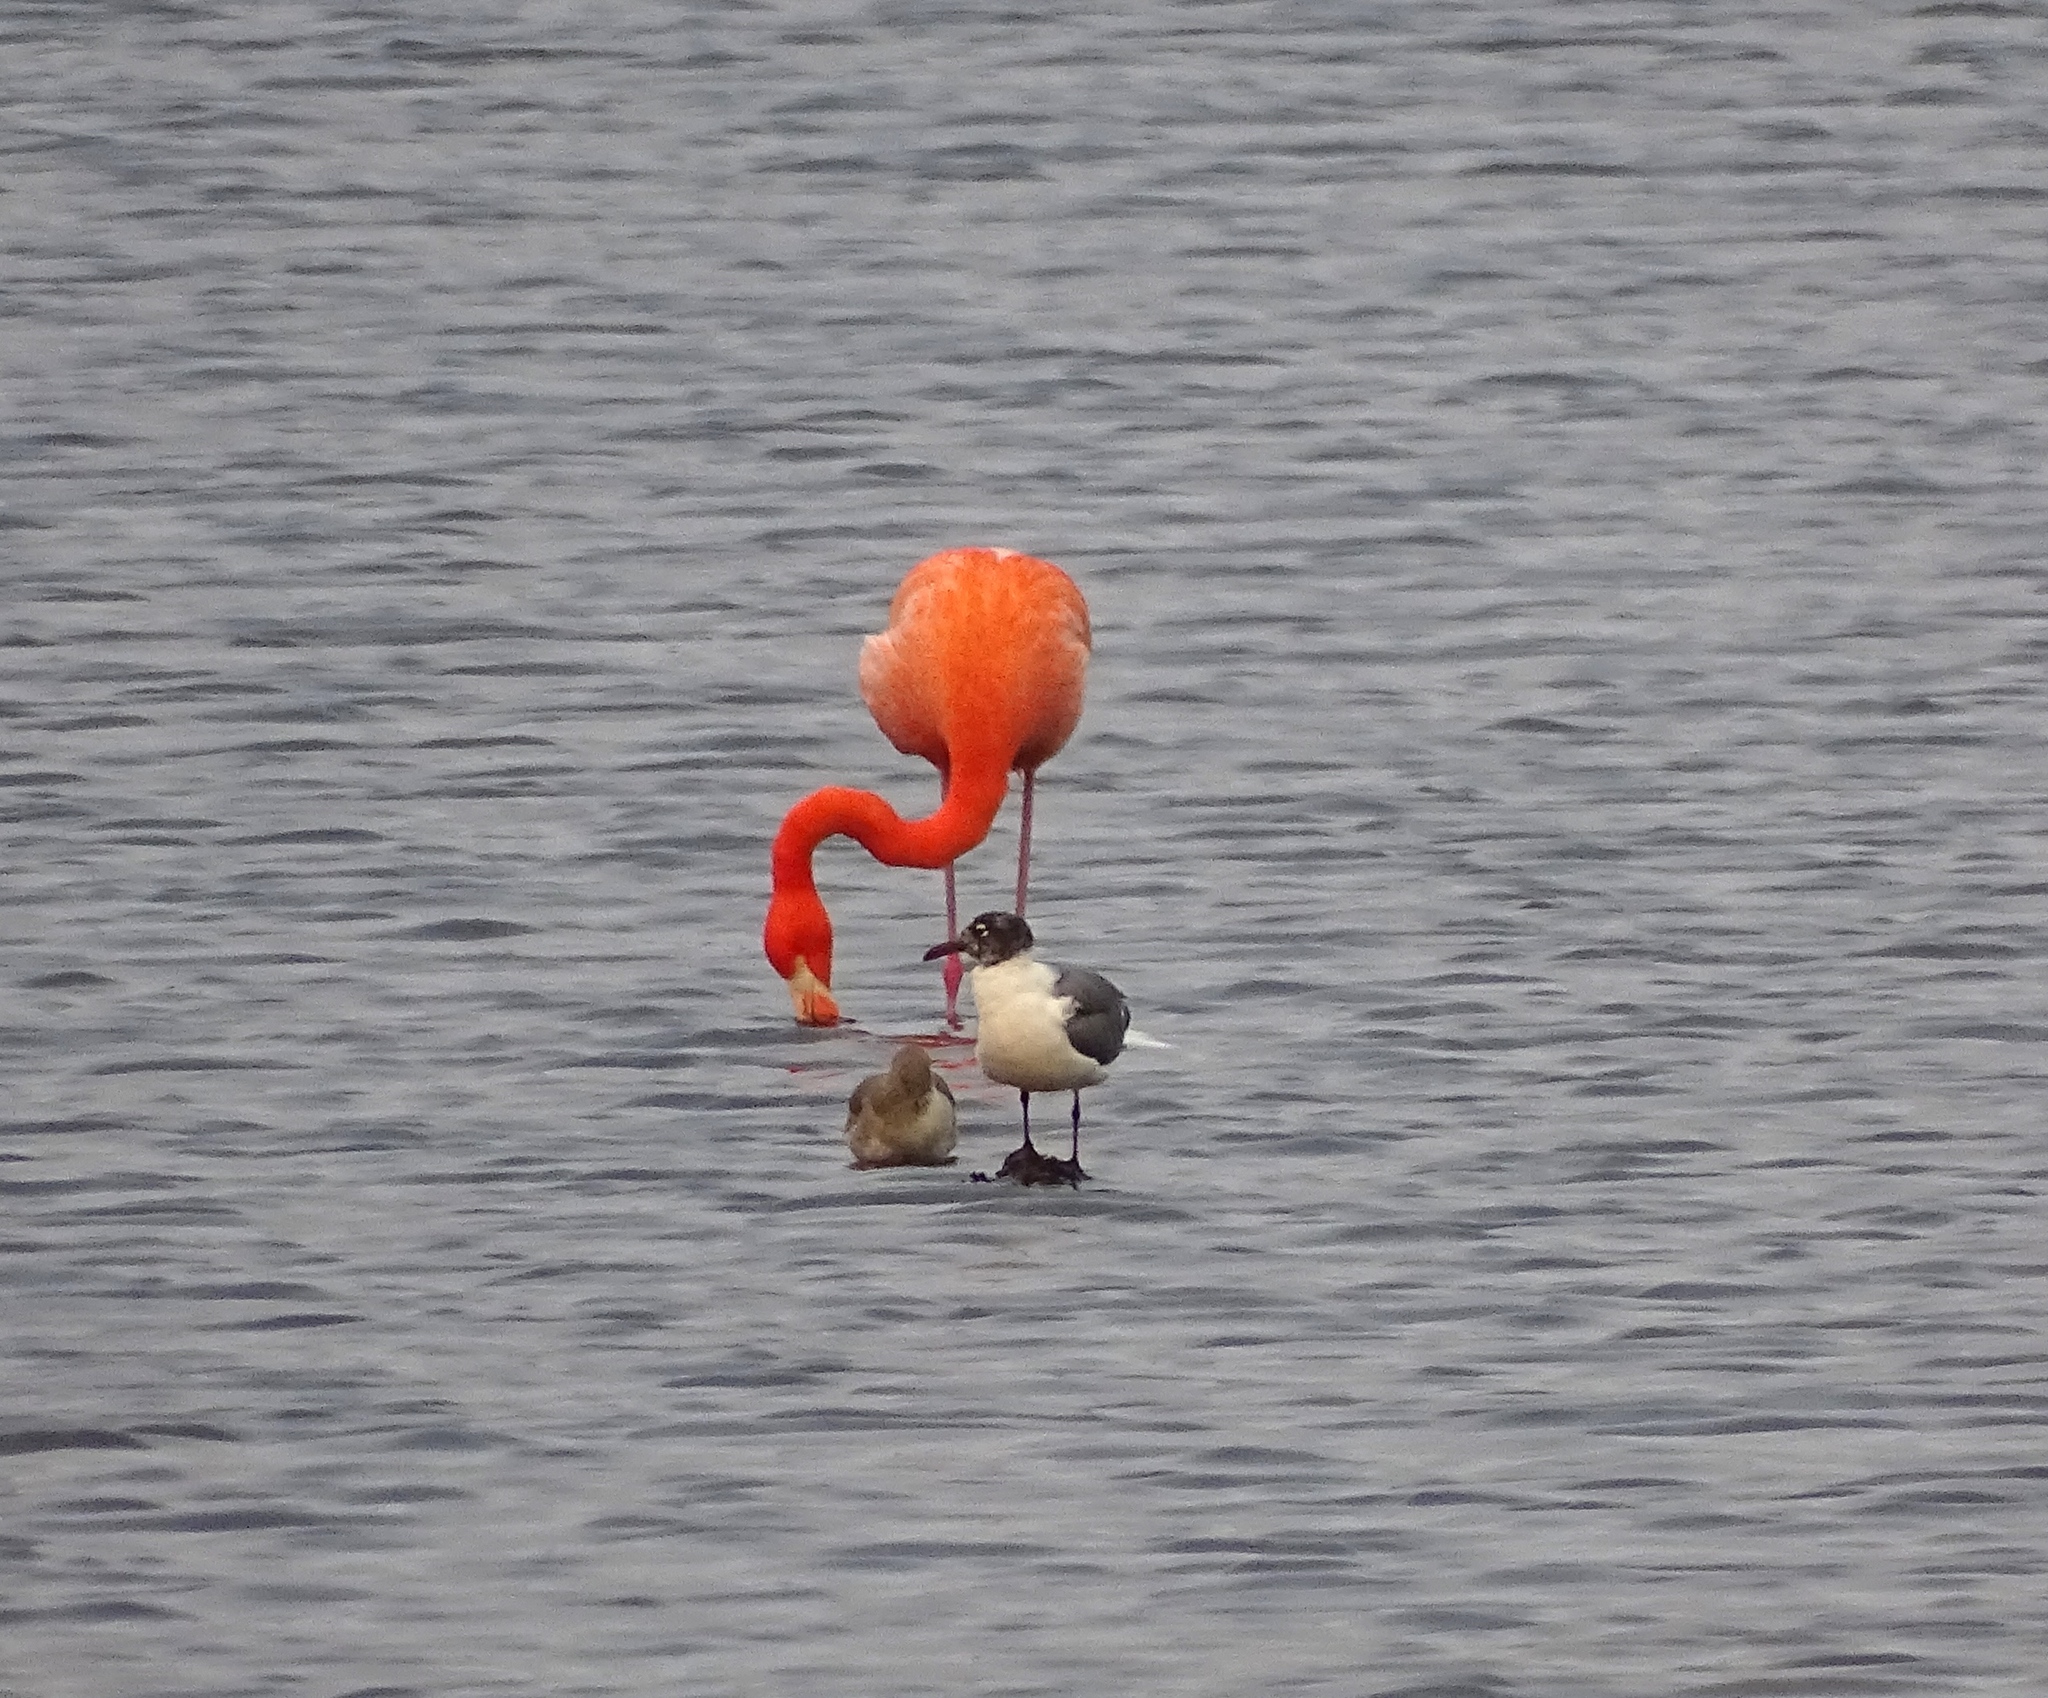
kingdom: Animalia
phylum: Chordata
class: Aves
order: Phoenicopteriformes
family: Phoenicopteridae
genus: Phoenicopterus
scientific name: Phoenicopterus ruber
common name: American flamingo
